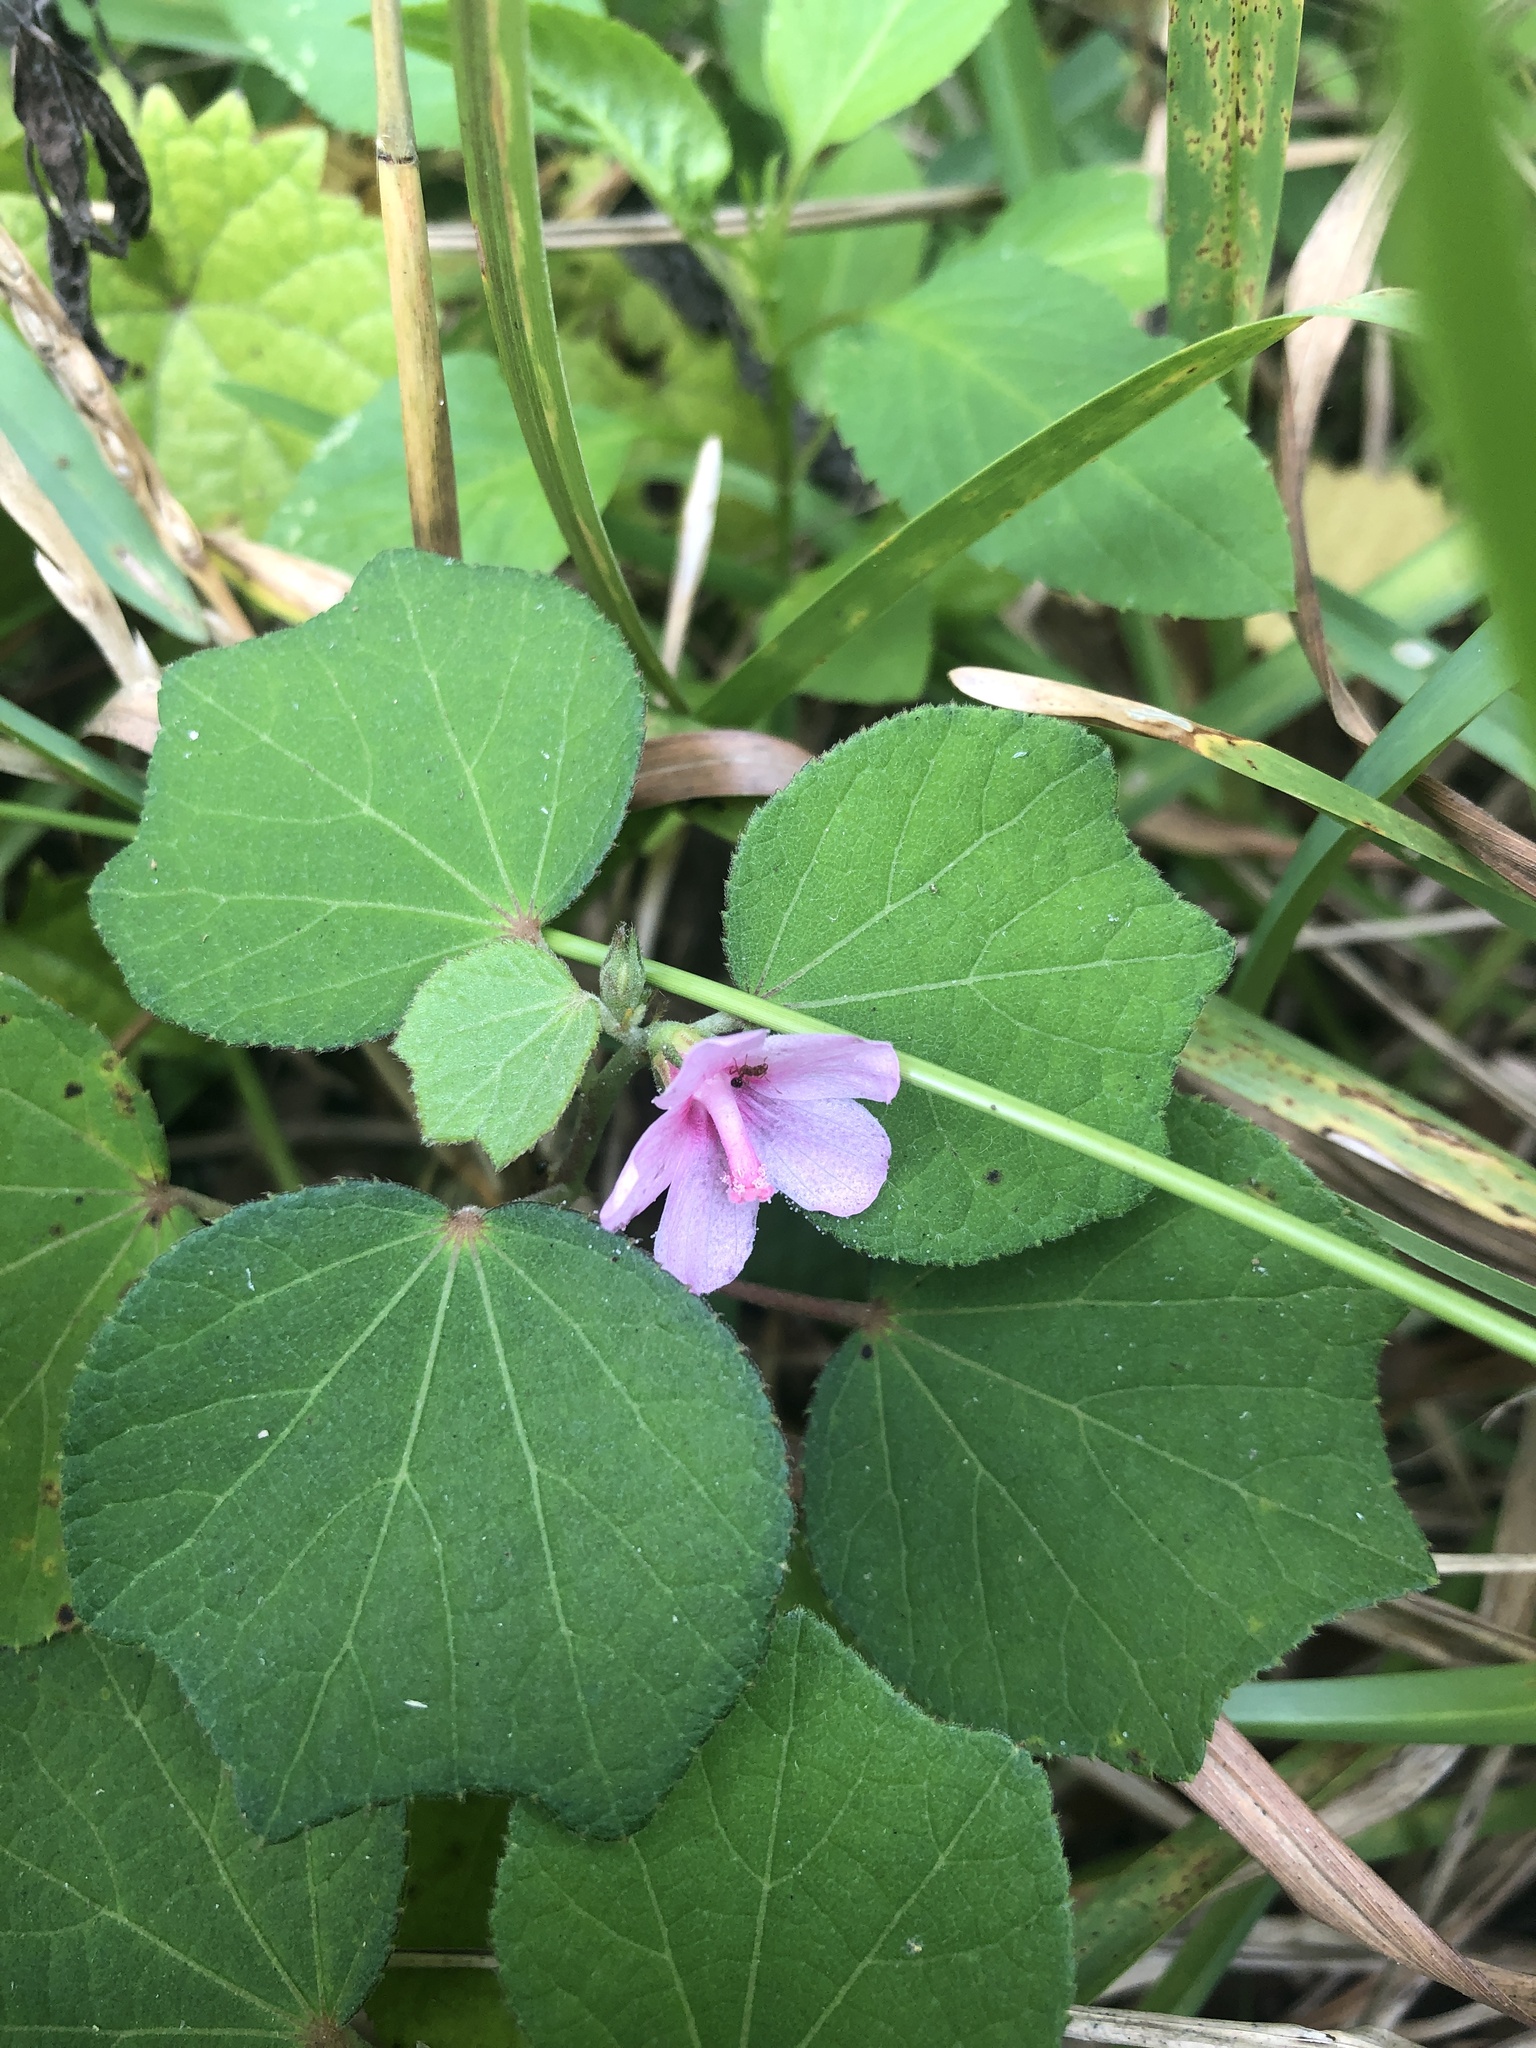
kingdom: Plantae
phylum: Tracheophyta
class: Magnoliopsida
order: Malvales
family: Malvaceae
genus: Urena
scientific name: Urena lobata
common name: Caesarweed
